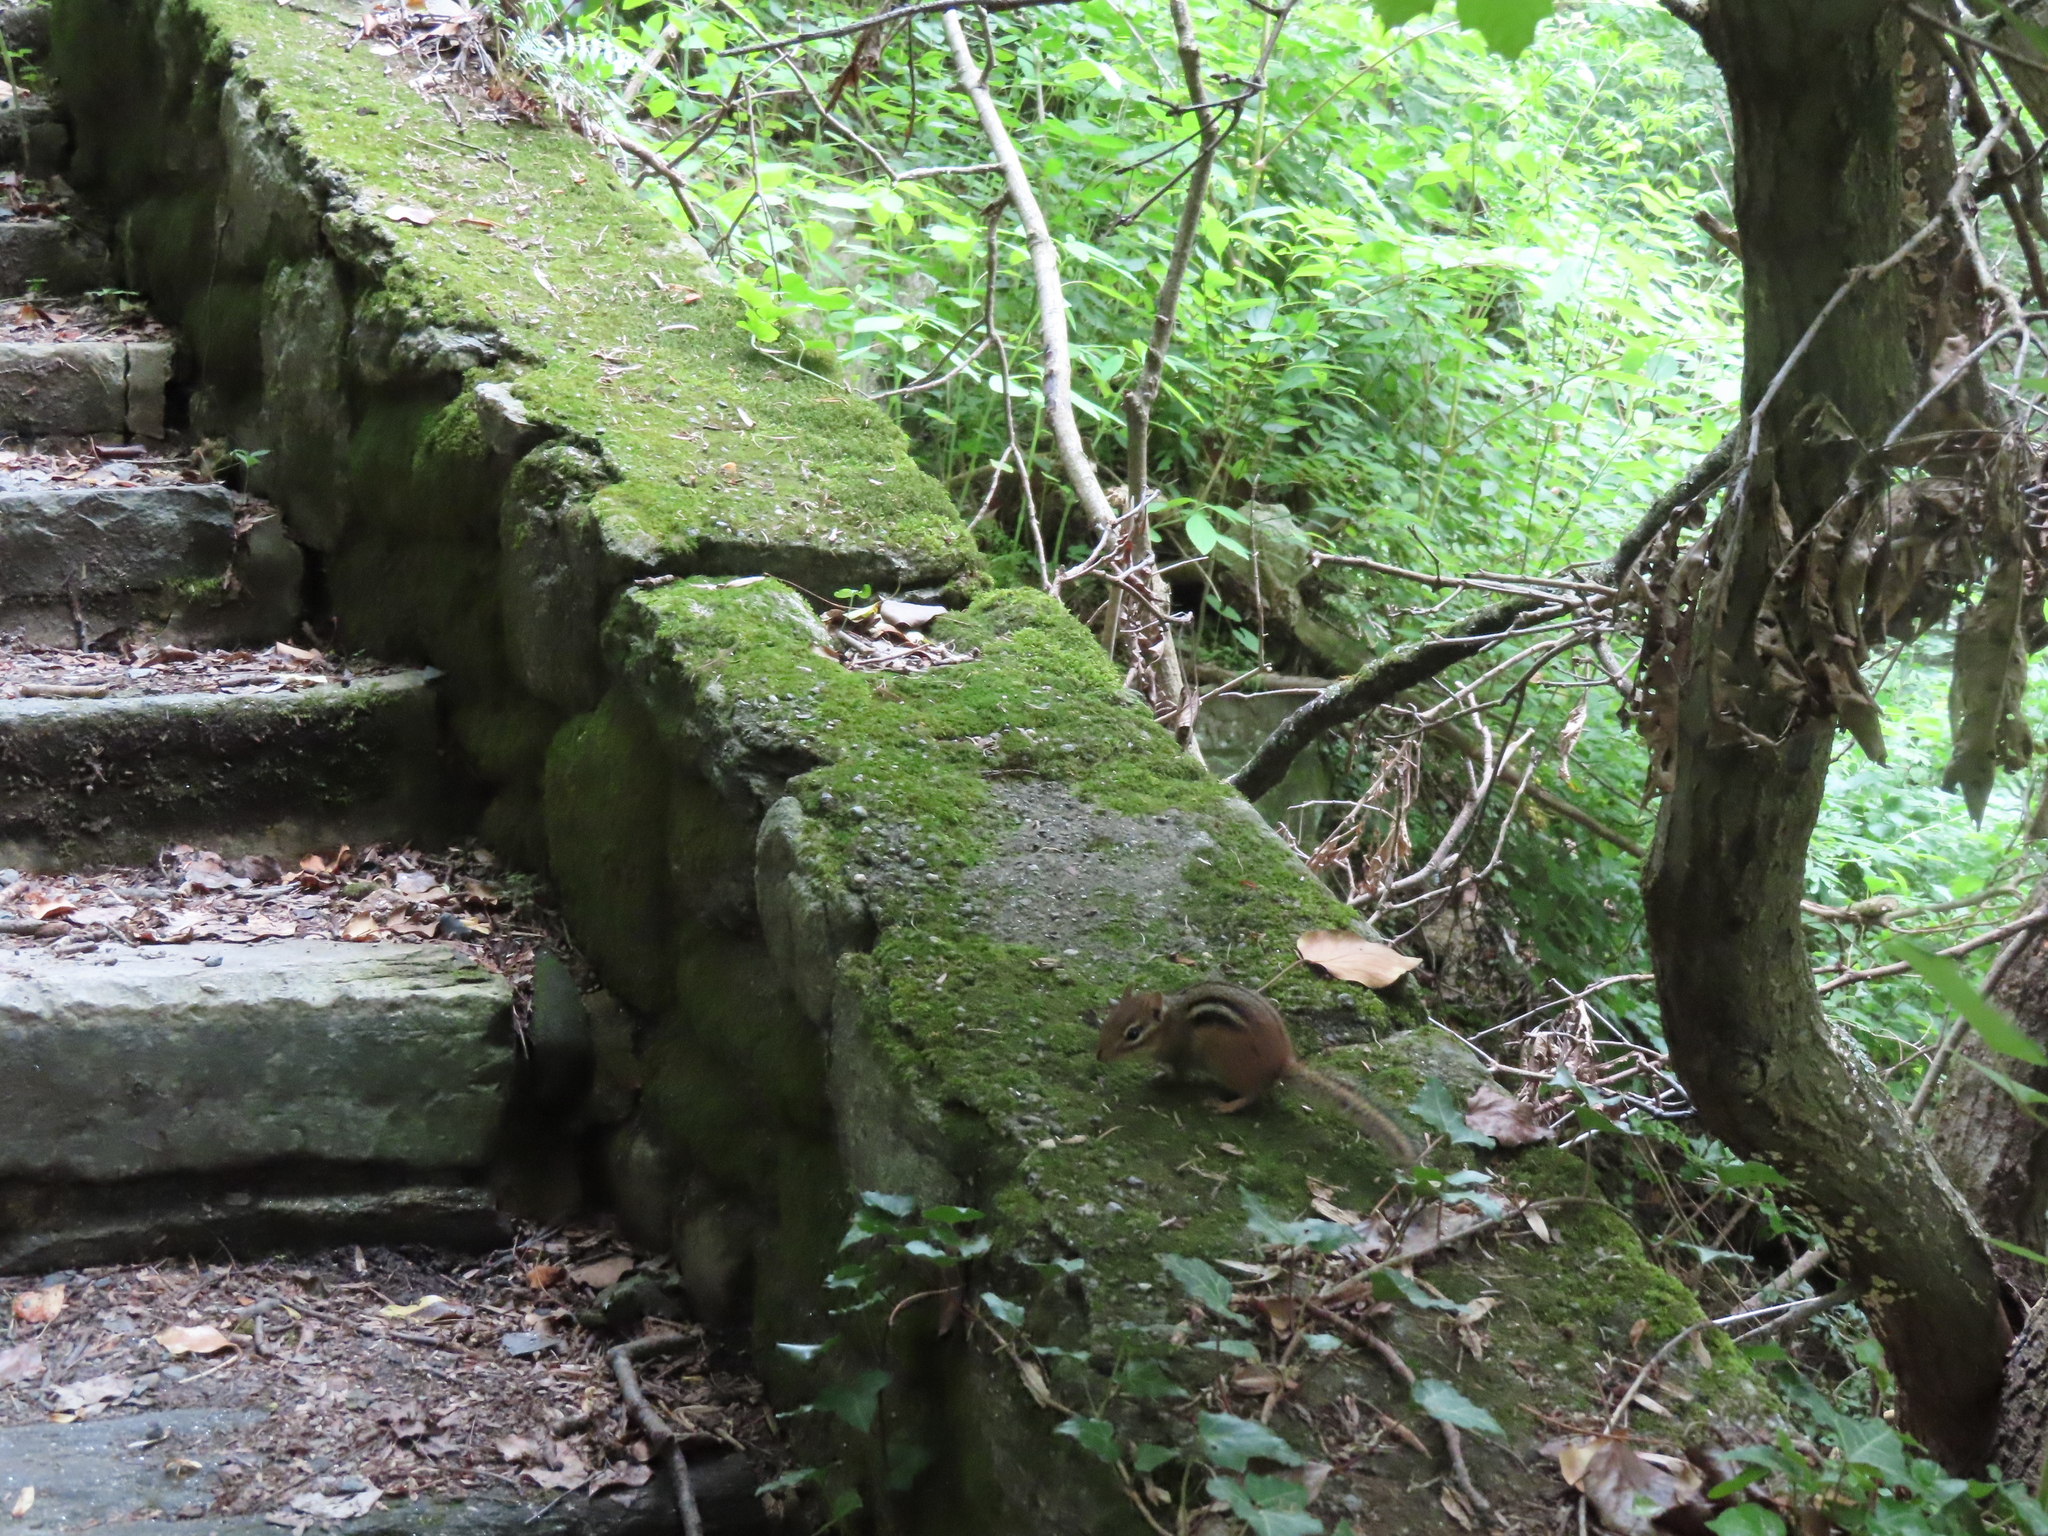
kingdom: Animalia
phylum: Chordata
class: Mammalia
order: Rodentia
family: Sciuridae
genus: Tamias
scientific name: Tamias striatus
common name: Eastern chipmunk
